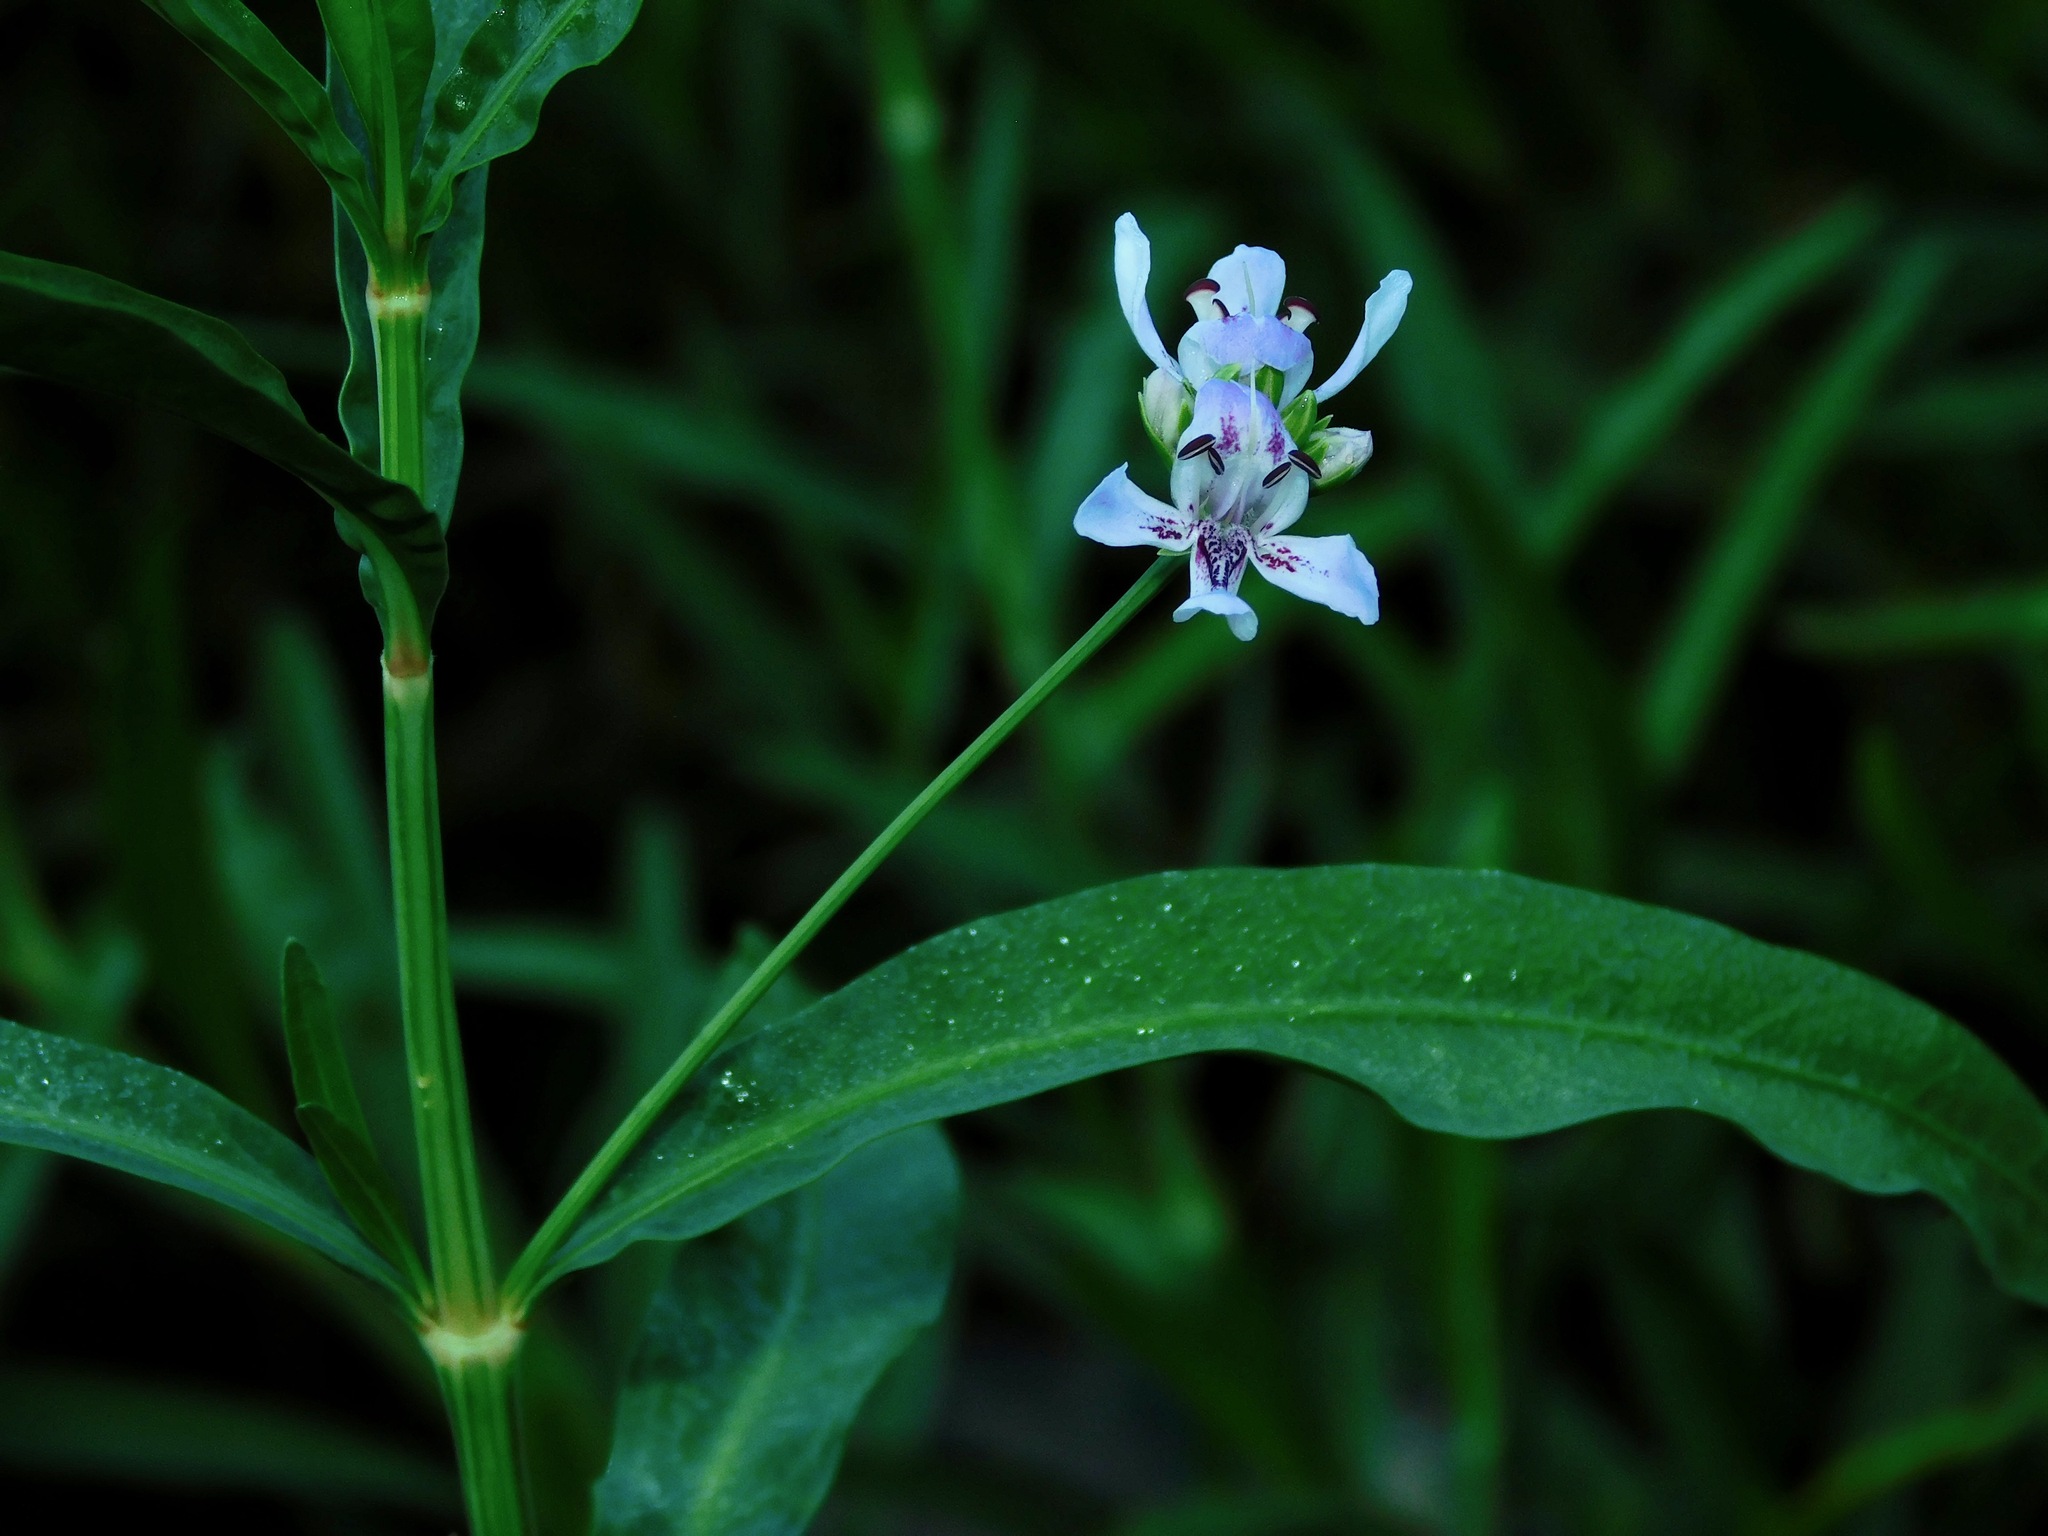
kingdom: Plantae
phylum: Tracheophyta
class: Magnoliopsida
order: Lamiales
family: Acanthaceae
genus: Dianthera
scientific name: Dianthera americana
